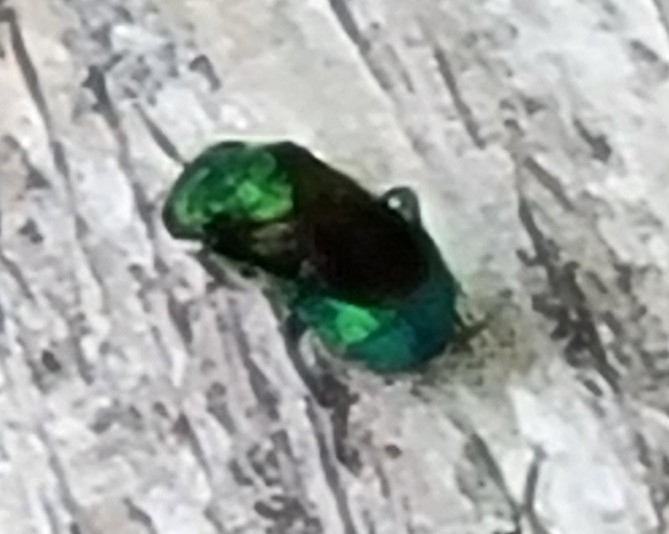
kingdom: Animalia
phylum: Arthropoda
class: Insecta
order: Hymenoptera
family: Chrysididae
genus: Chrysis
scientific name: Chrysis angolensis
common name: Cuckoo wasp
